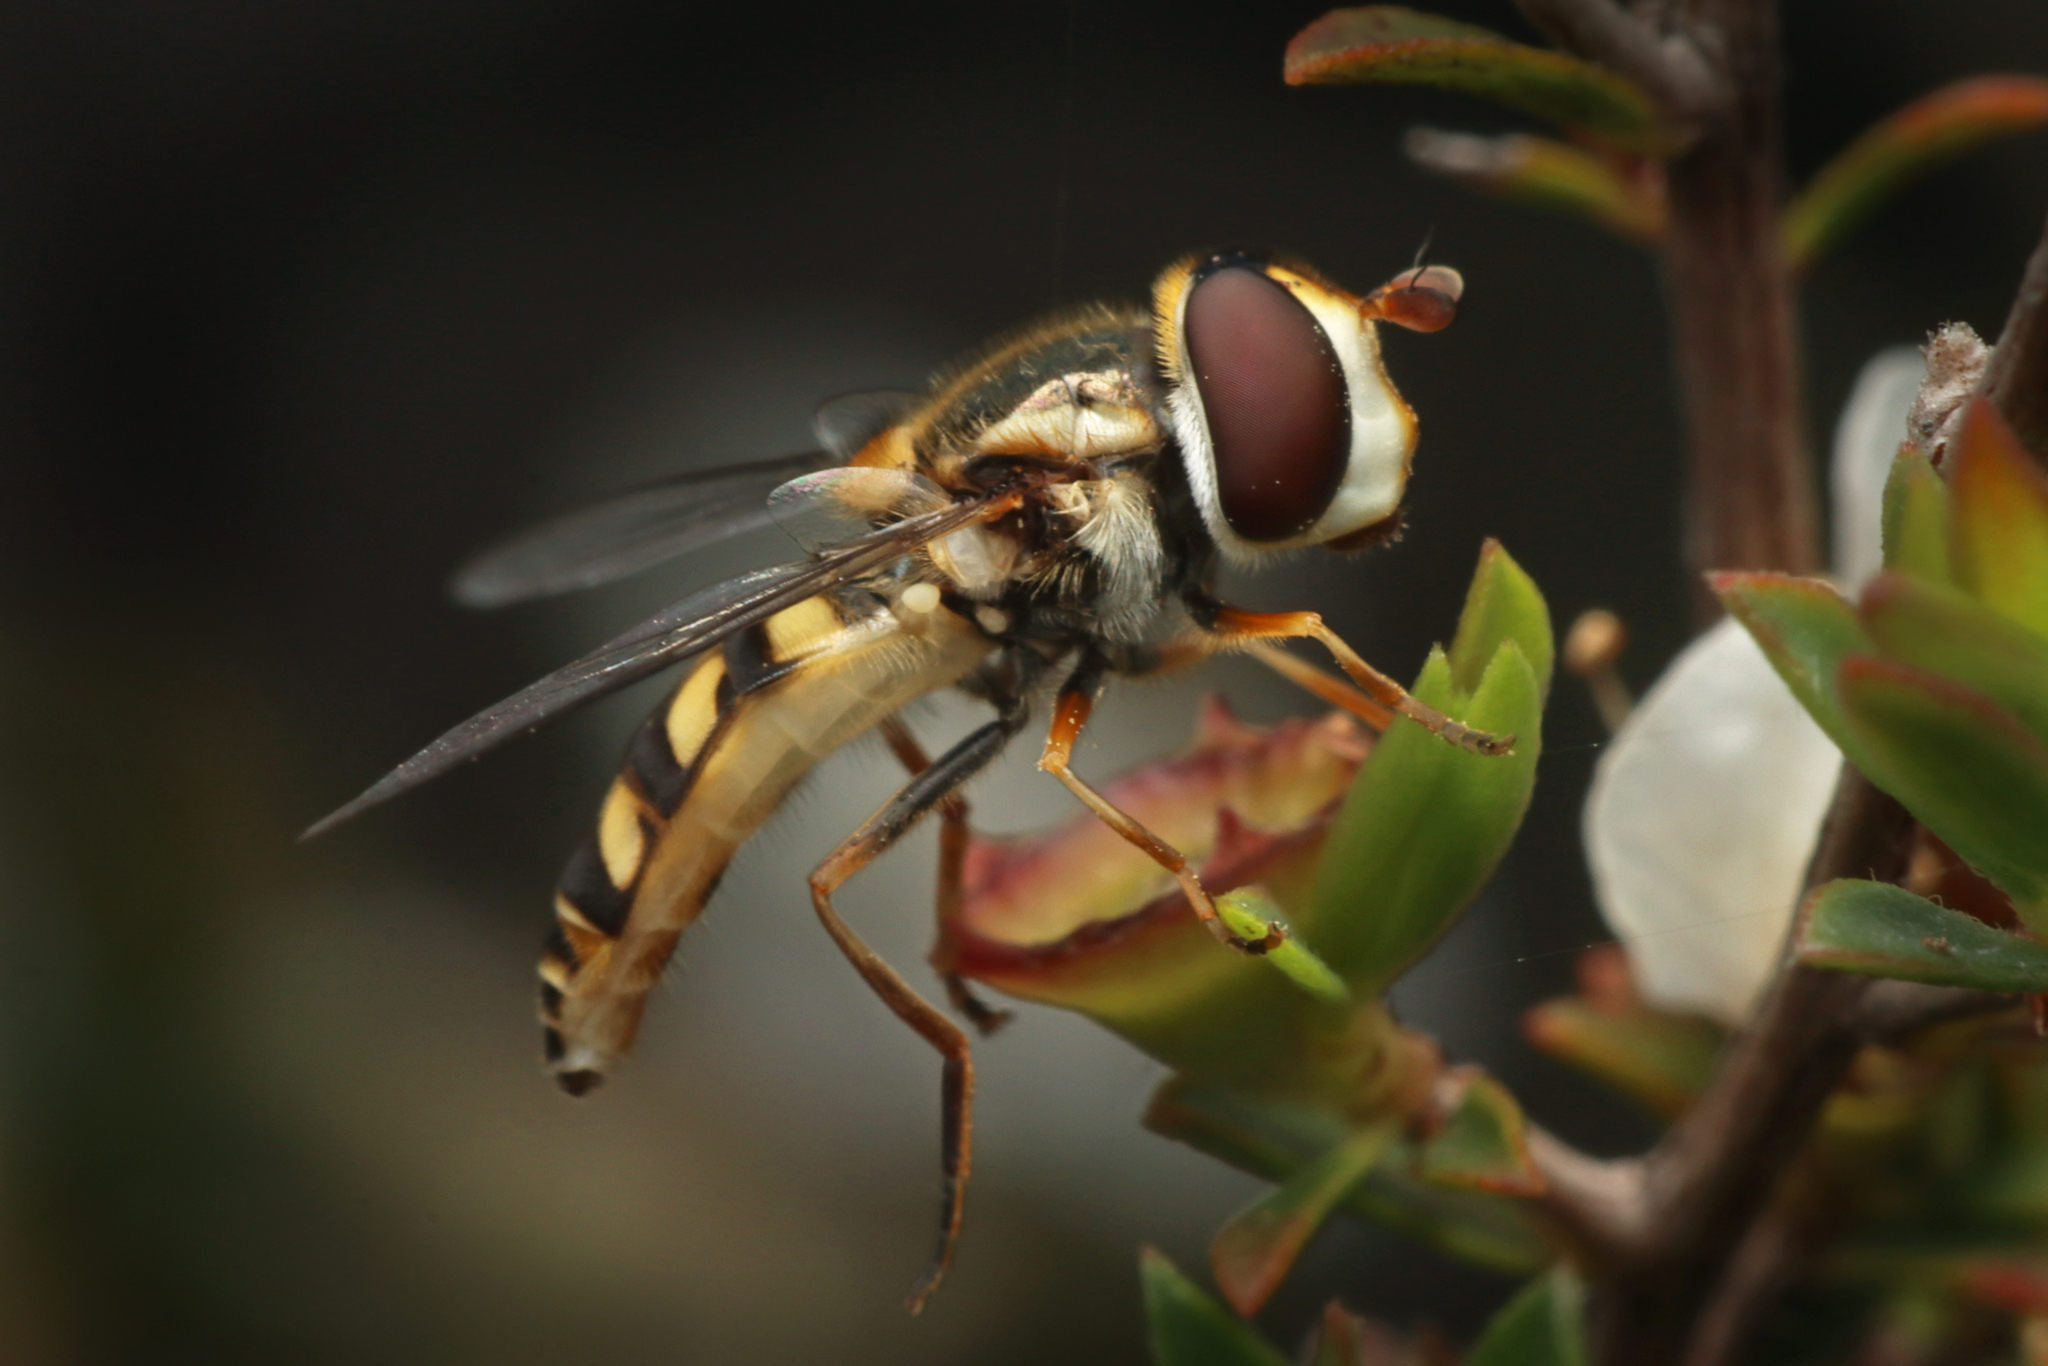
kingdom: Animalia
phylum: Arthropoda
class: Insecta
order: Diptera
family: Syrphidae
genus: Simosyrphus
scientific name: Simosyrphus grandicornis
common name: Hoverfly
